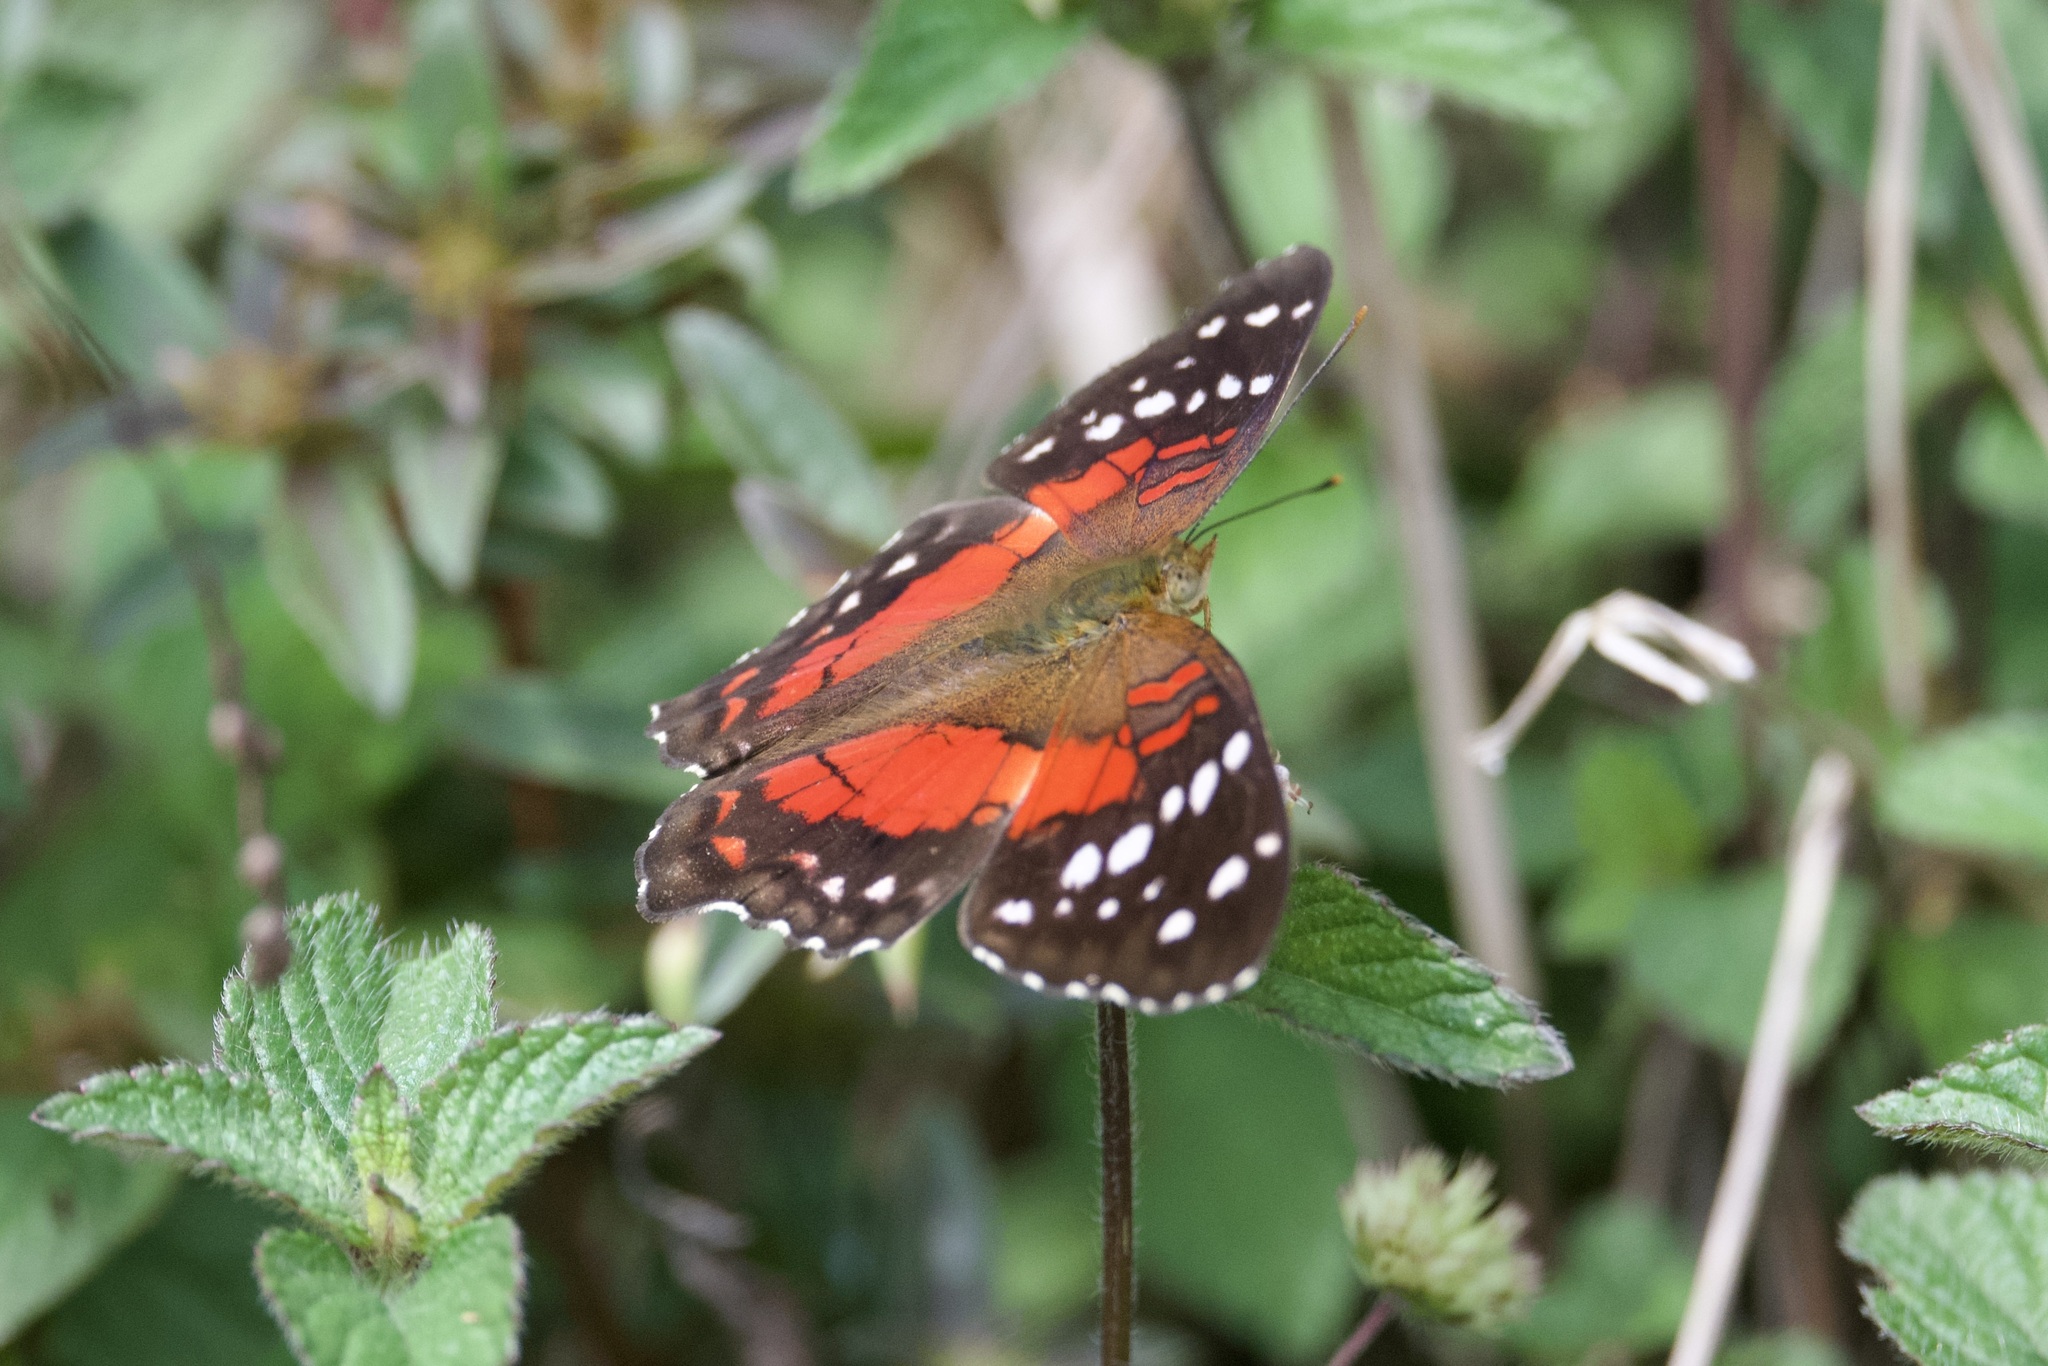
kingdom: Animalia
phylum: Arthropoda
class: Insecta
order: Lepidoptera
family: Nymphalidae
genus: Anartia
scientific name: Anartia amathea
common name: Red peacock
